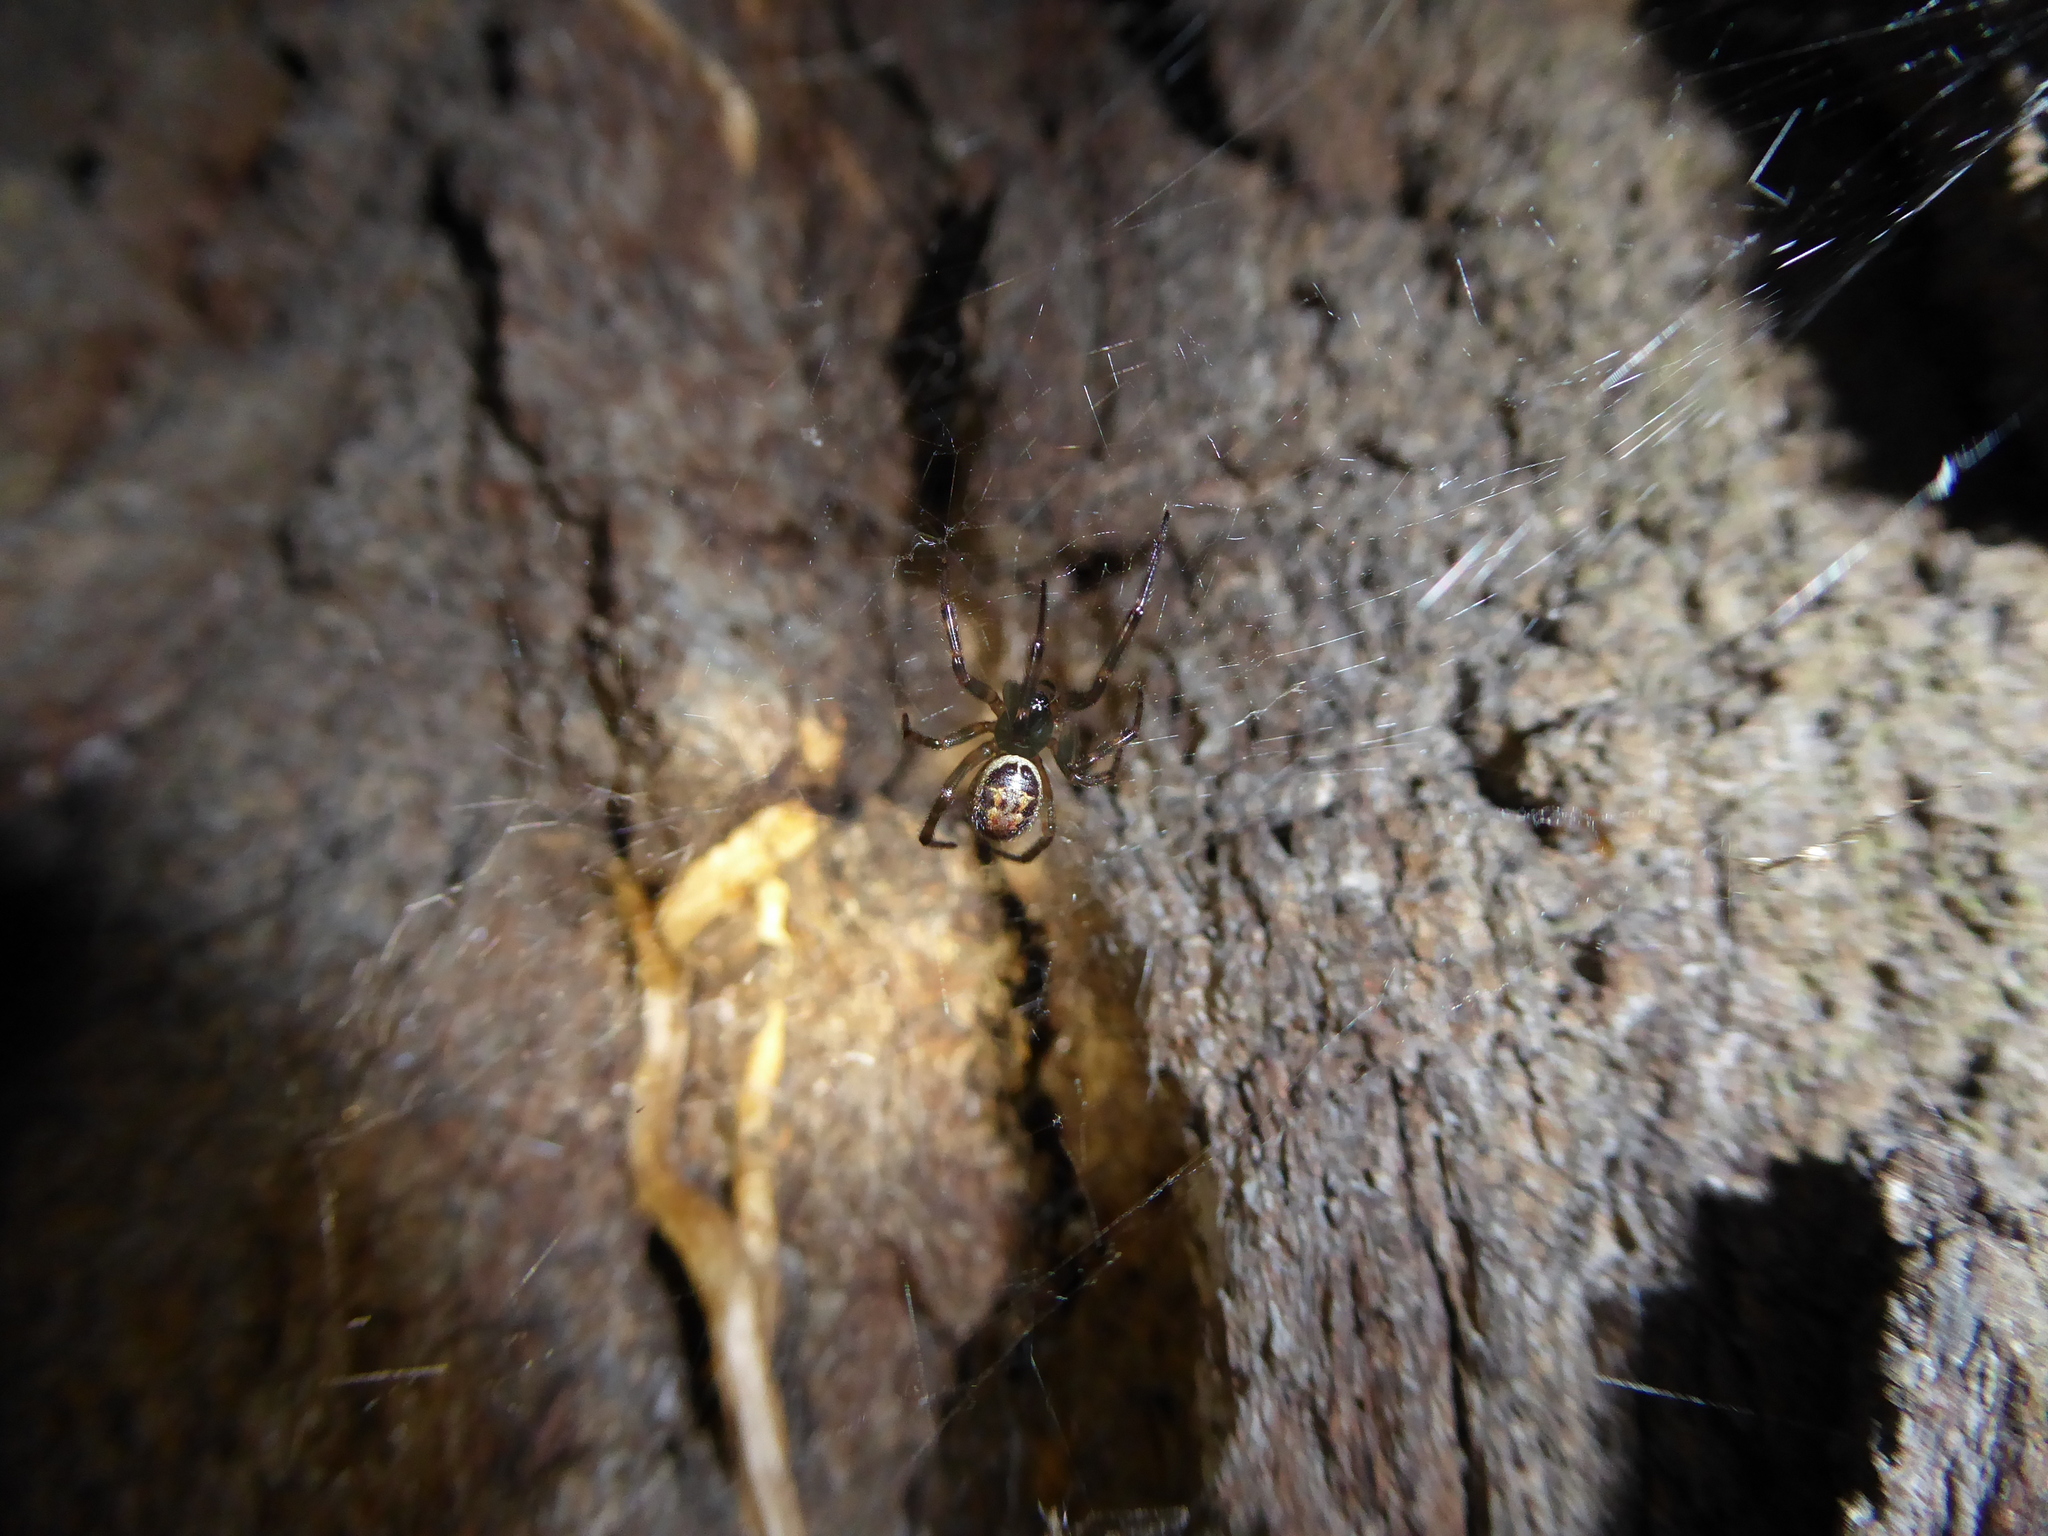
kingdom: Animalia
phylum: Arthropoda
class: Arachnida
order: Araneae
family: Theridiidae
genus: Steatoda
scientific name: Steatoda nobilis
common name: Cobweb weaver
